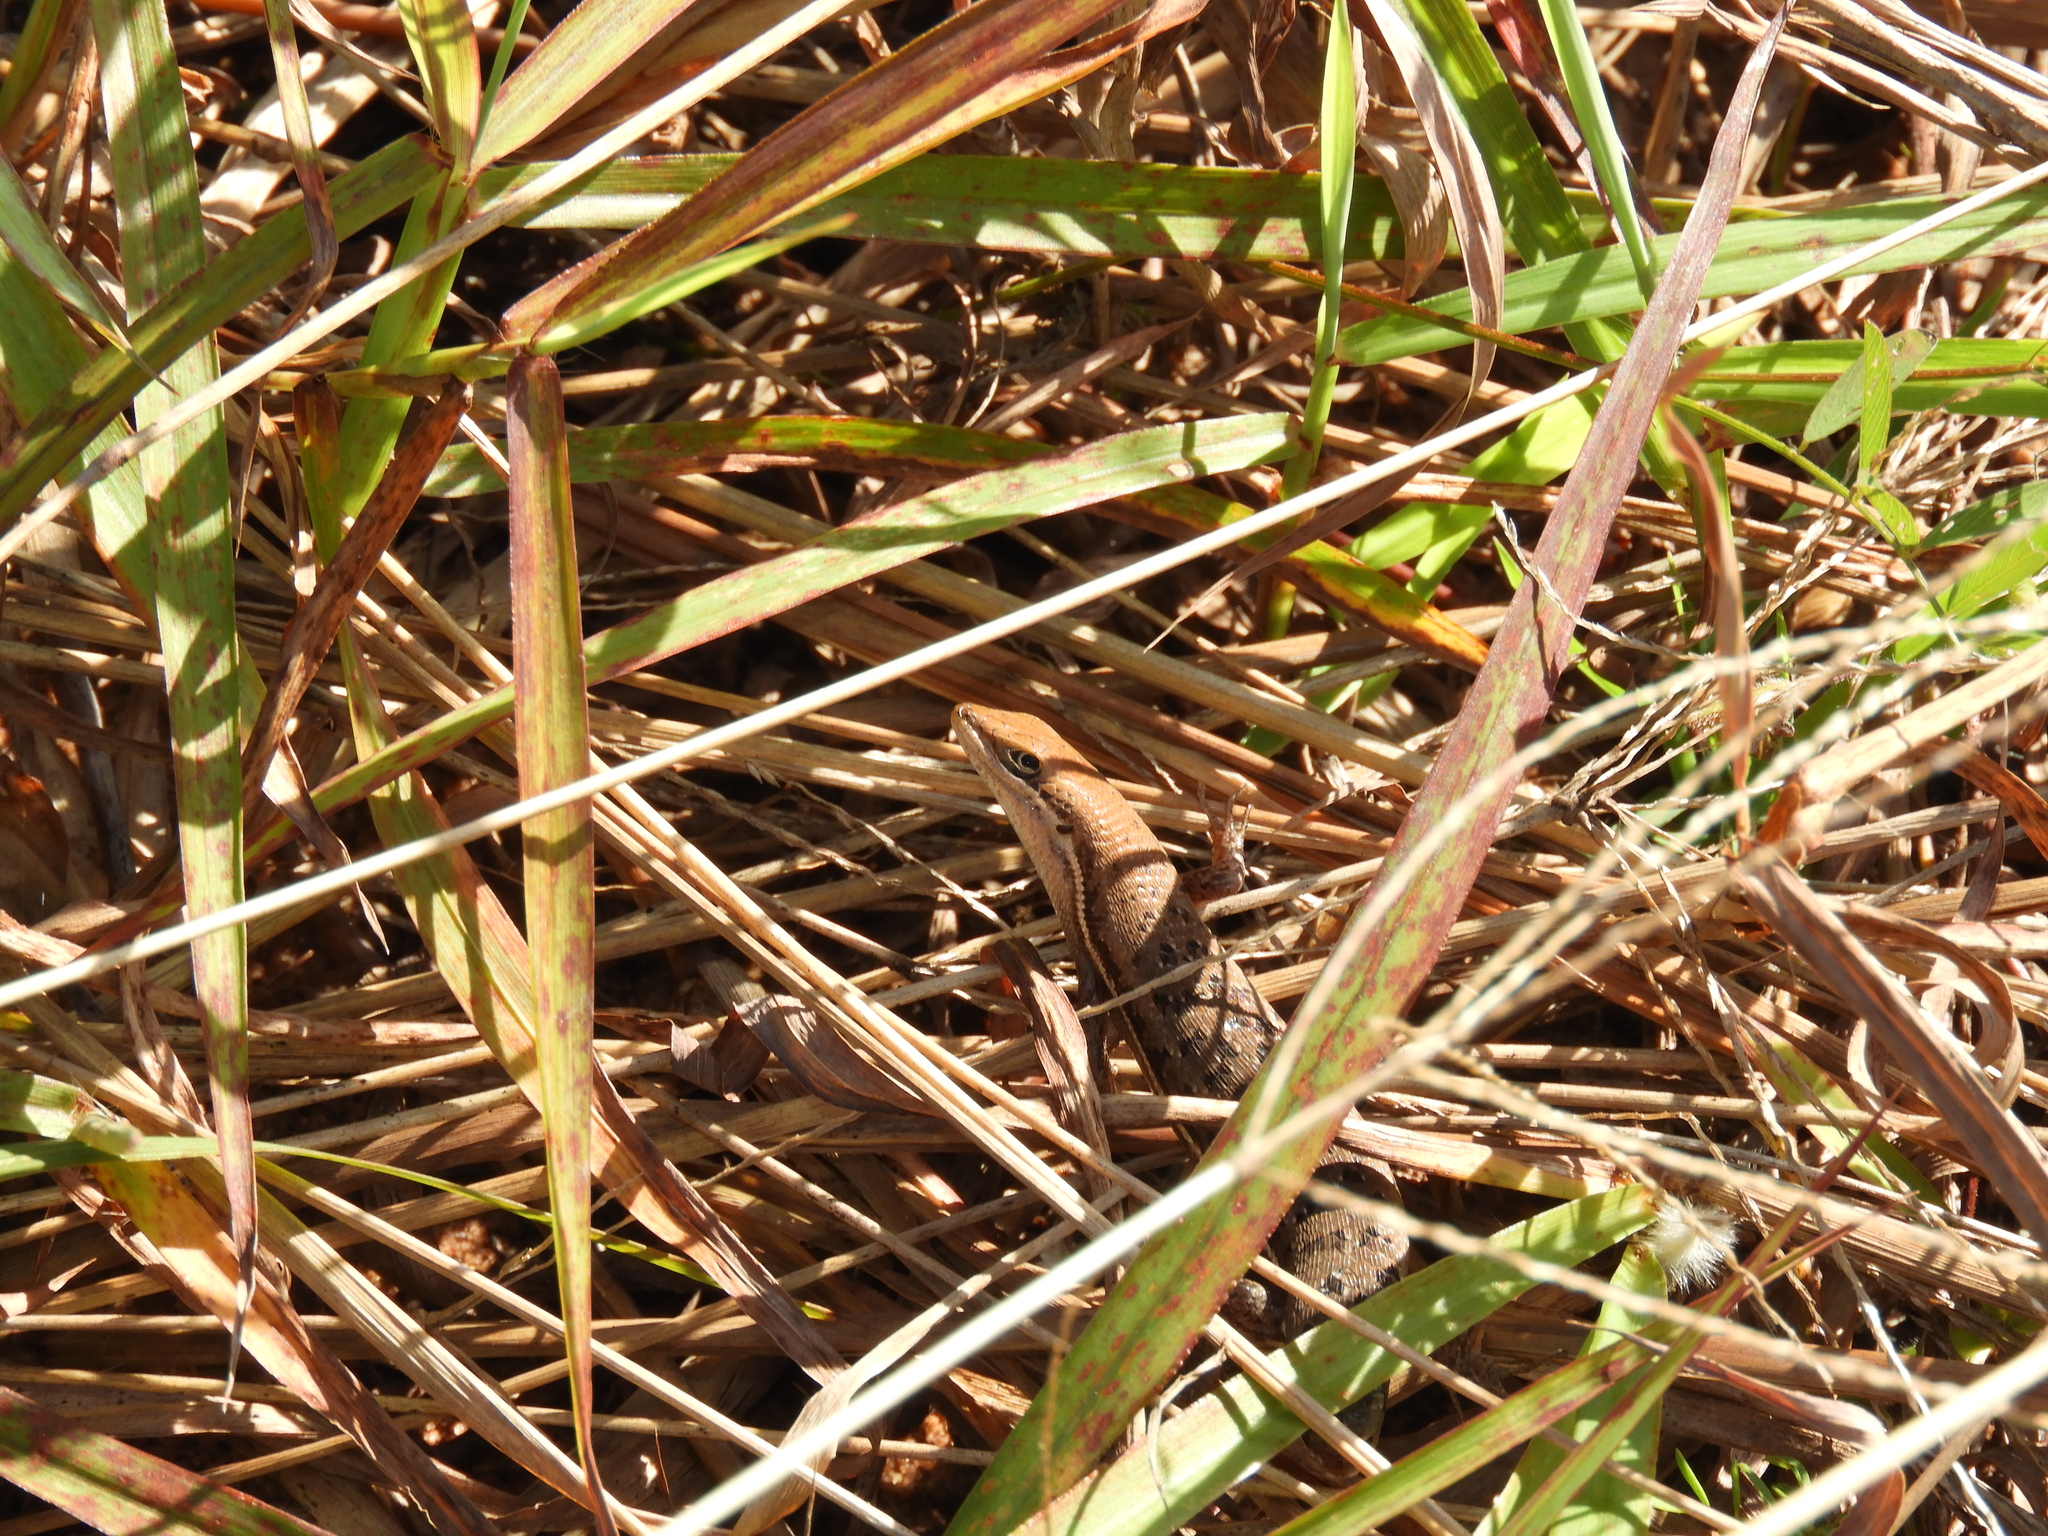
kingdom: Animalia
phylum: Chordata
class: Squamata
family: Scincidae
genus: Trachylepis
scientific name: Trachylepis varia
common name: Eastern variable skink
